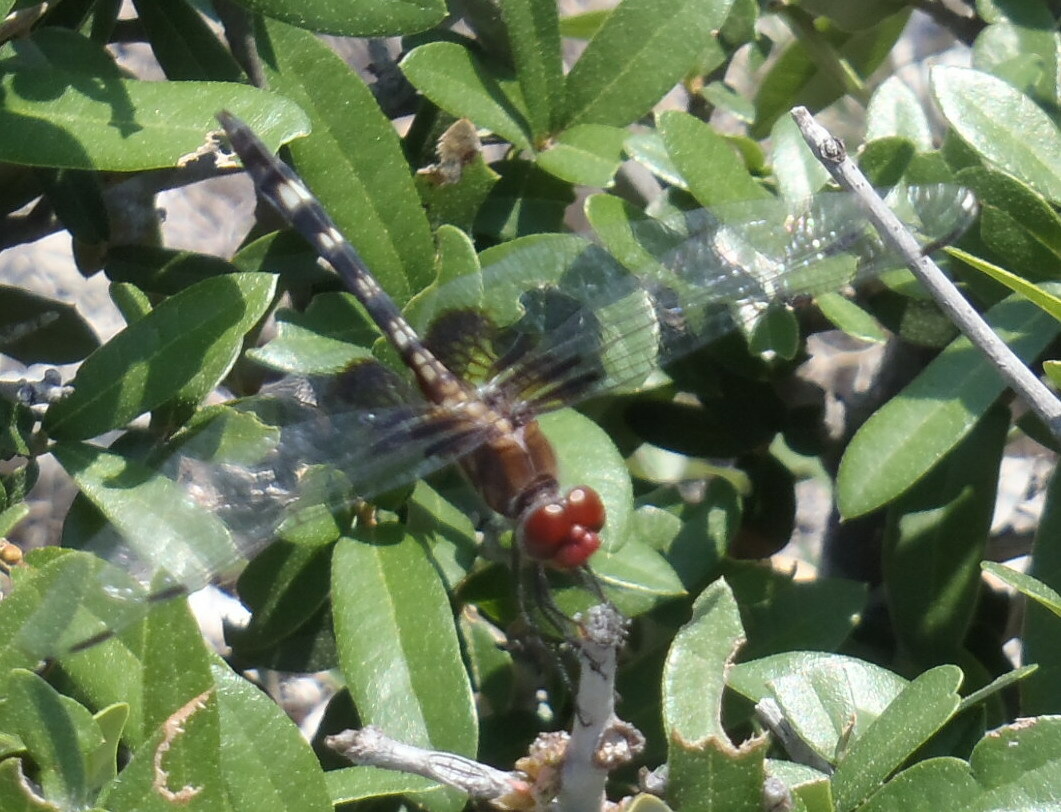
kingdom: Animalia
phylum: Arthropoda
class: Insecta
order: Odonata
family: Libellulidae
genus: Dythemis
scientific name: Dythemis fugax
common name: Checkered setwing
